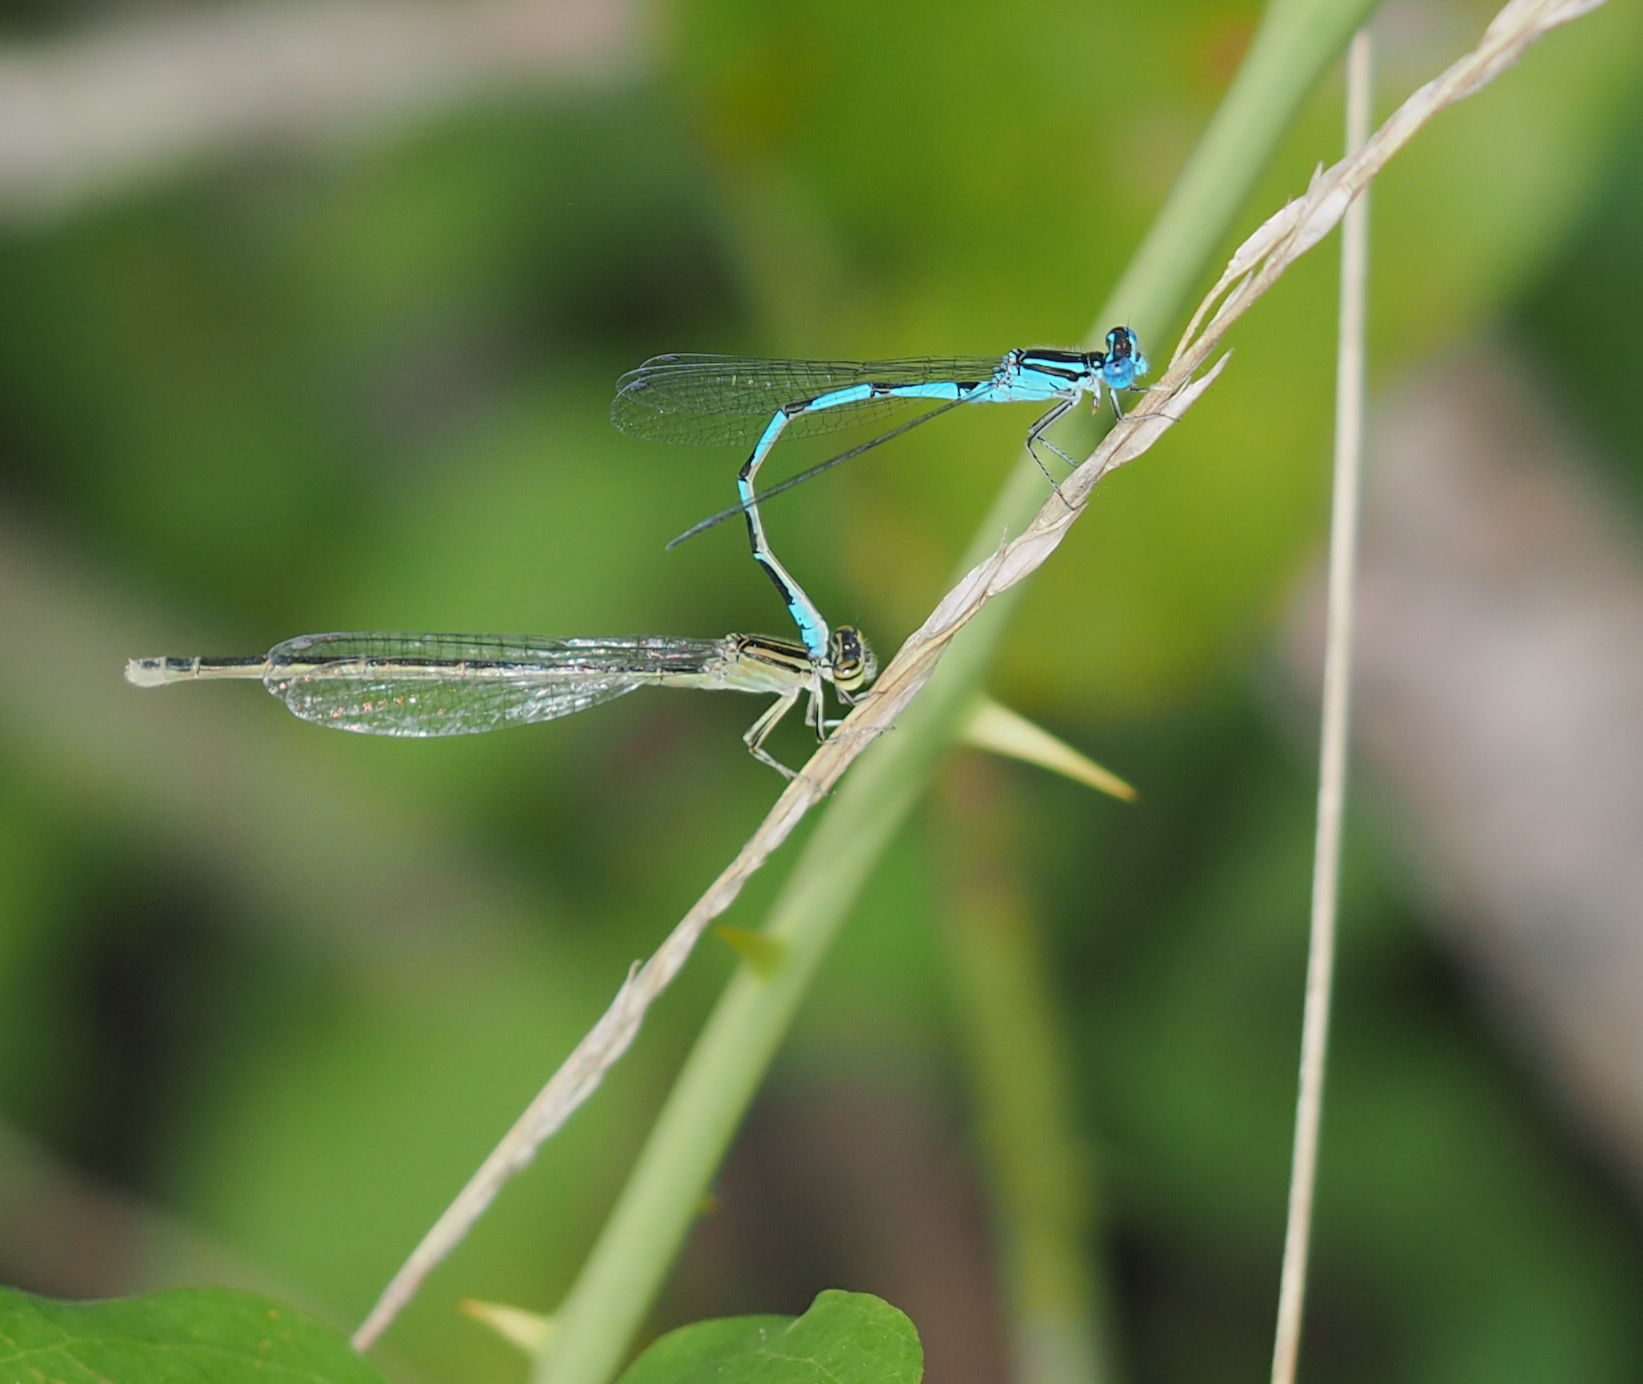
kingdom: Animalia
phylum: Arthropoda
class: Insecta
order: Odonata
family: Coenagrionidae
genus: Enallagma
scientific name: Enallagma durum
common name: Big bluet
